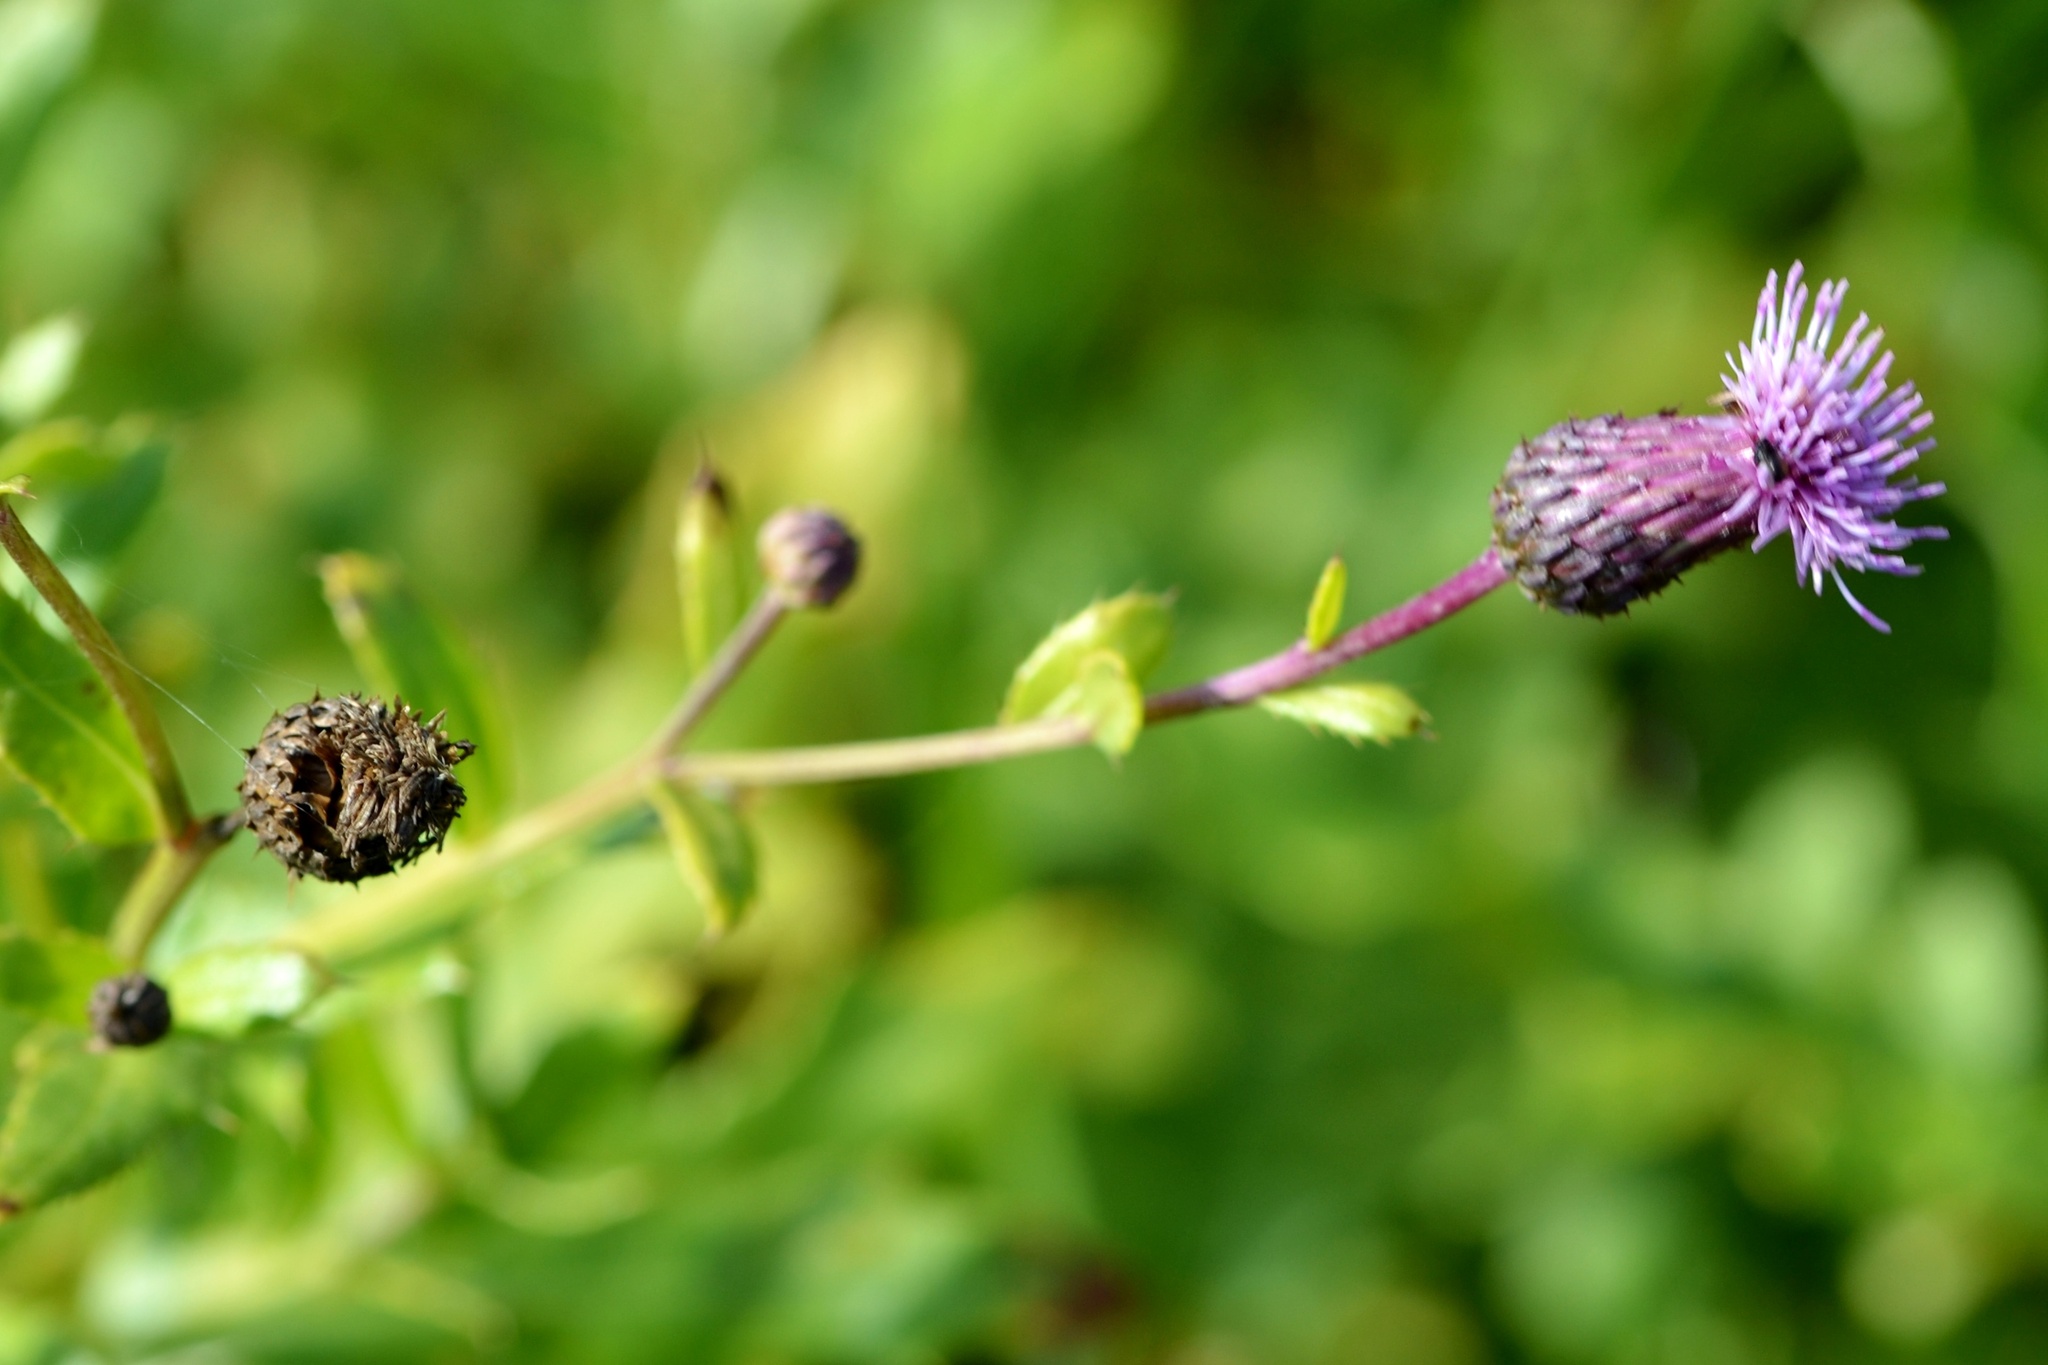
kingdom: Plantae
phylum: Tracheophyta
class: Magnoliopsida
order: Asterales
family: Asteraceae
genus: Cirsium
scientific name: Cirsium arvense
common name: Creeping thistle
